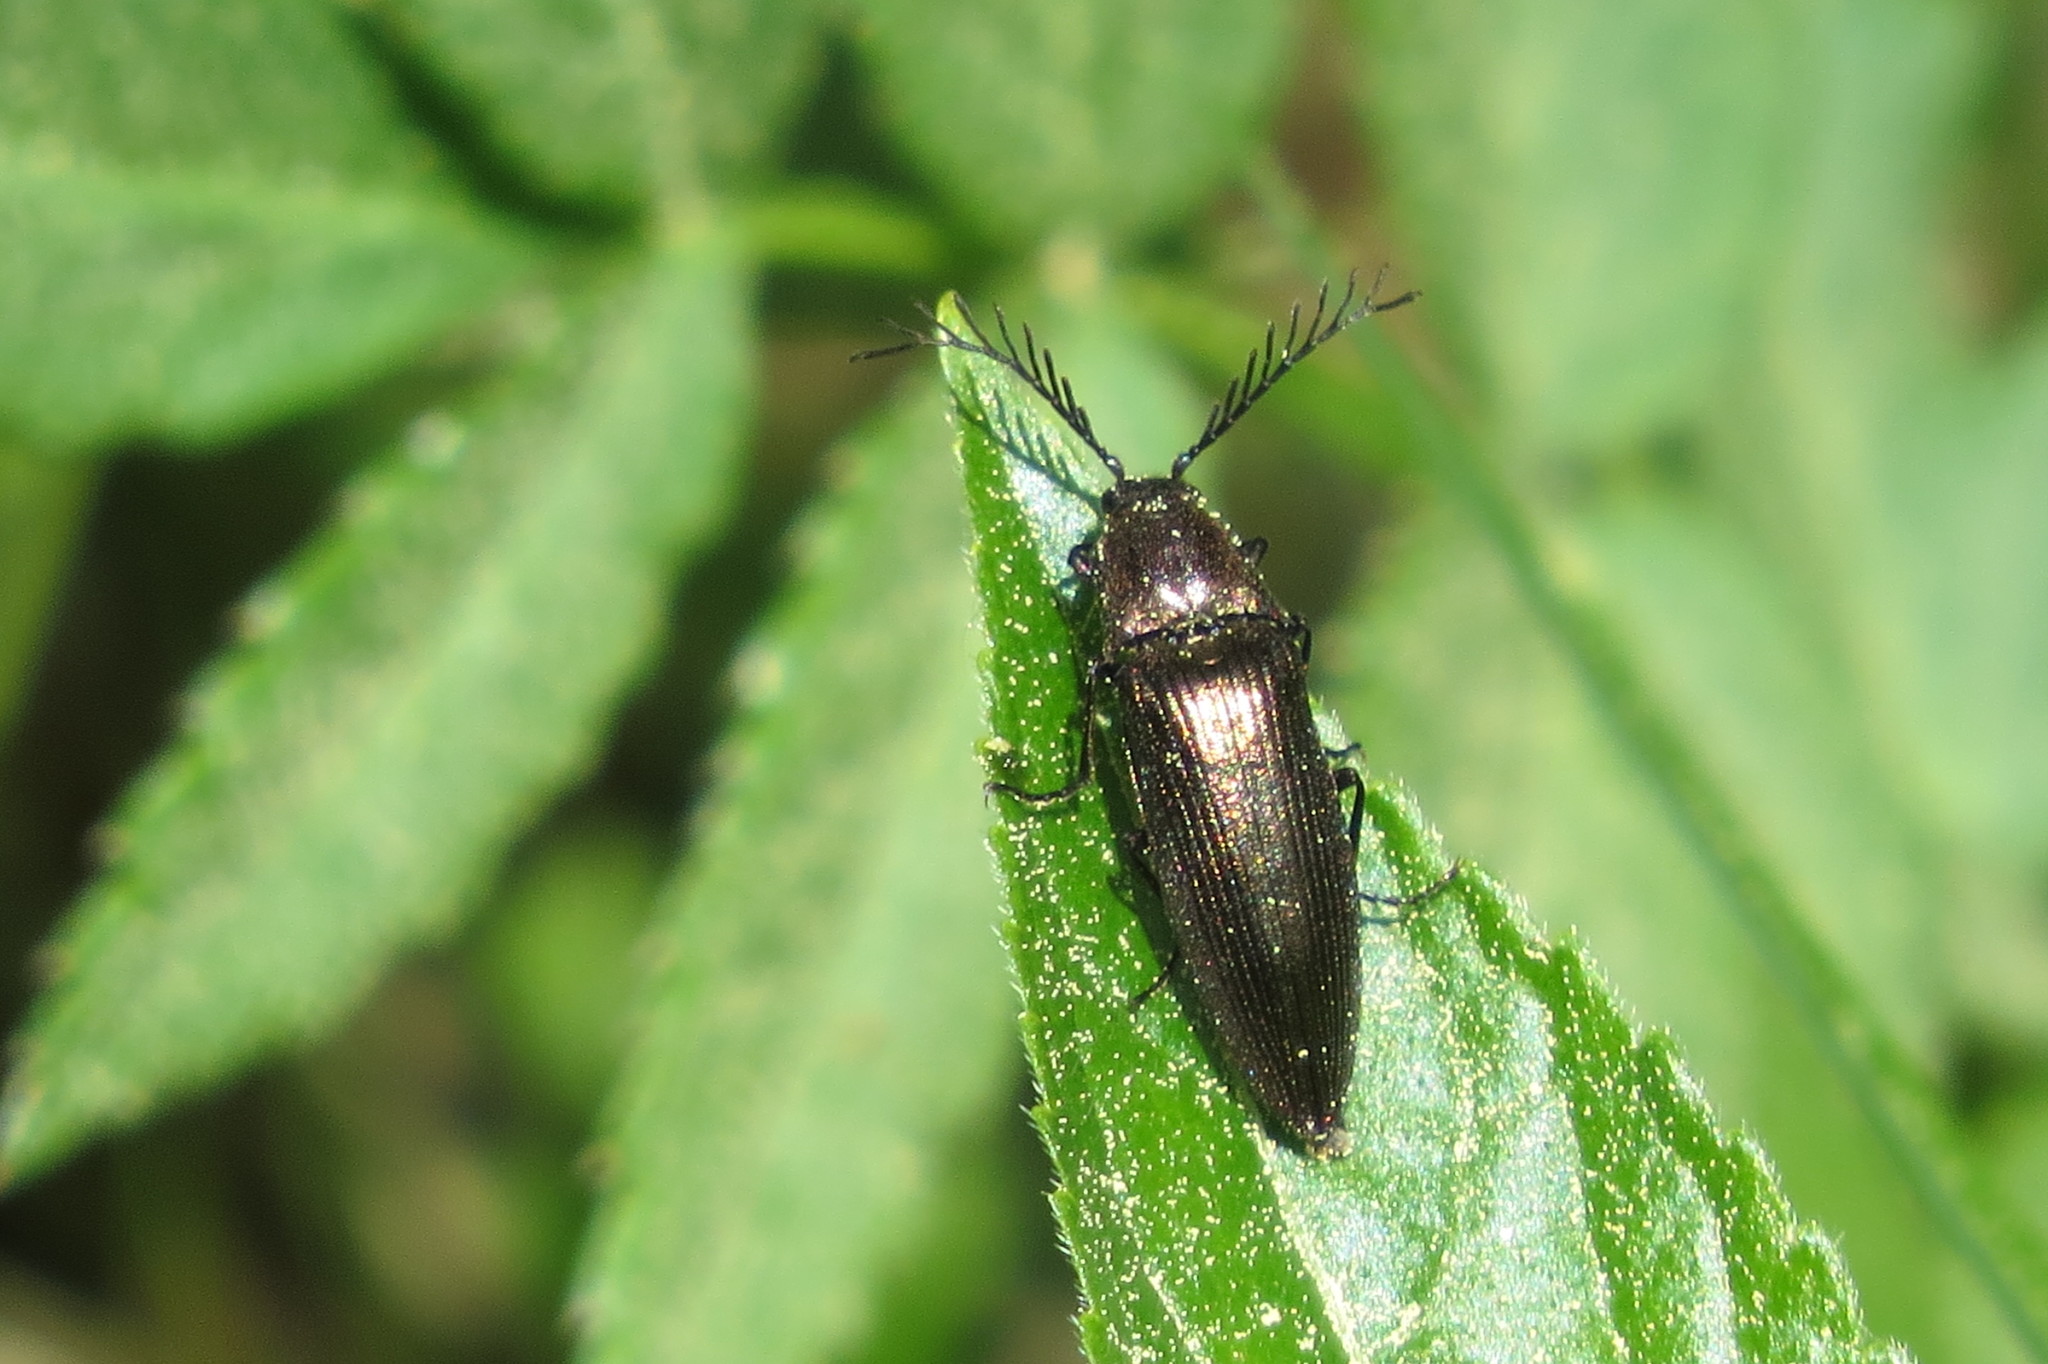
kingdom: Animalia
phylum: Arthropoda
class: Insecta
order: Coleoptera
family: Elateridae
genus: Ctenicera
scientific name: Ctenicera pectinicornis
